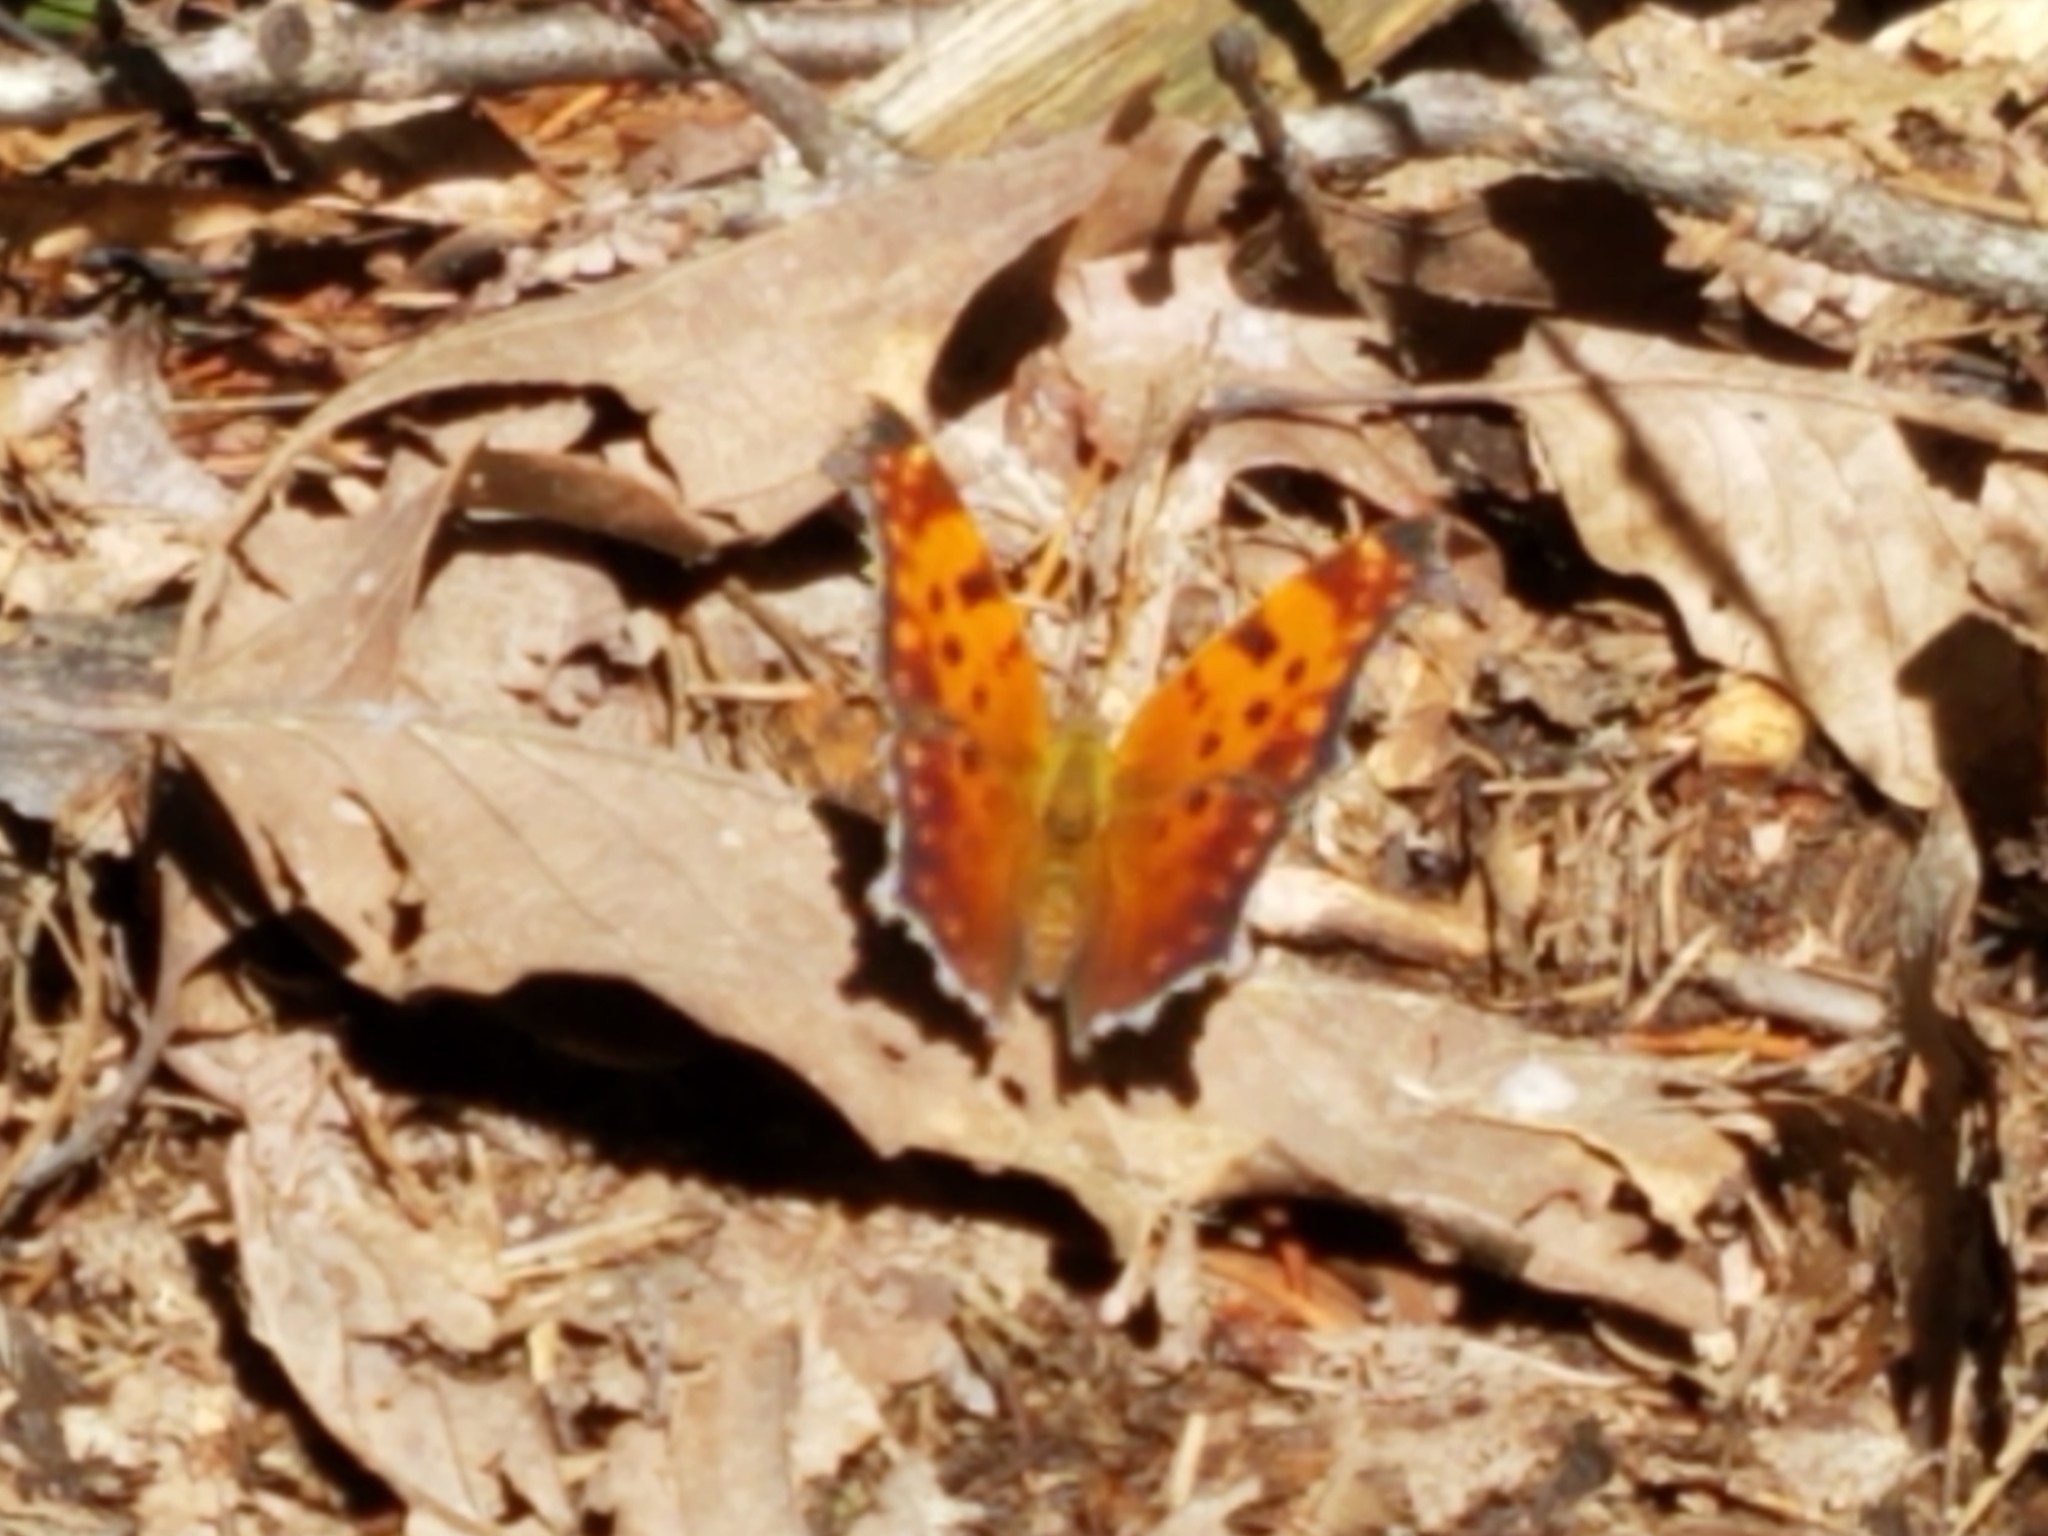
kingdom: Animalia
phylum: Arthropoda
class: Insecta
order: Lepidoptera
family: Nymphalidae
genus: Polygonia
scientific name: Polygonia comma
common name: Eastern comma
